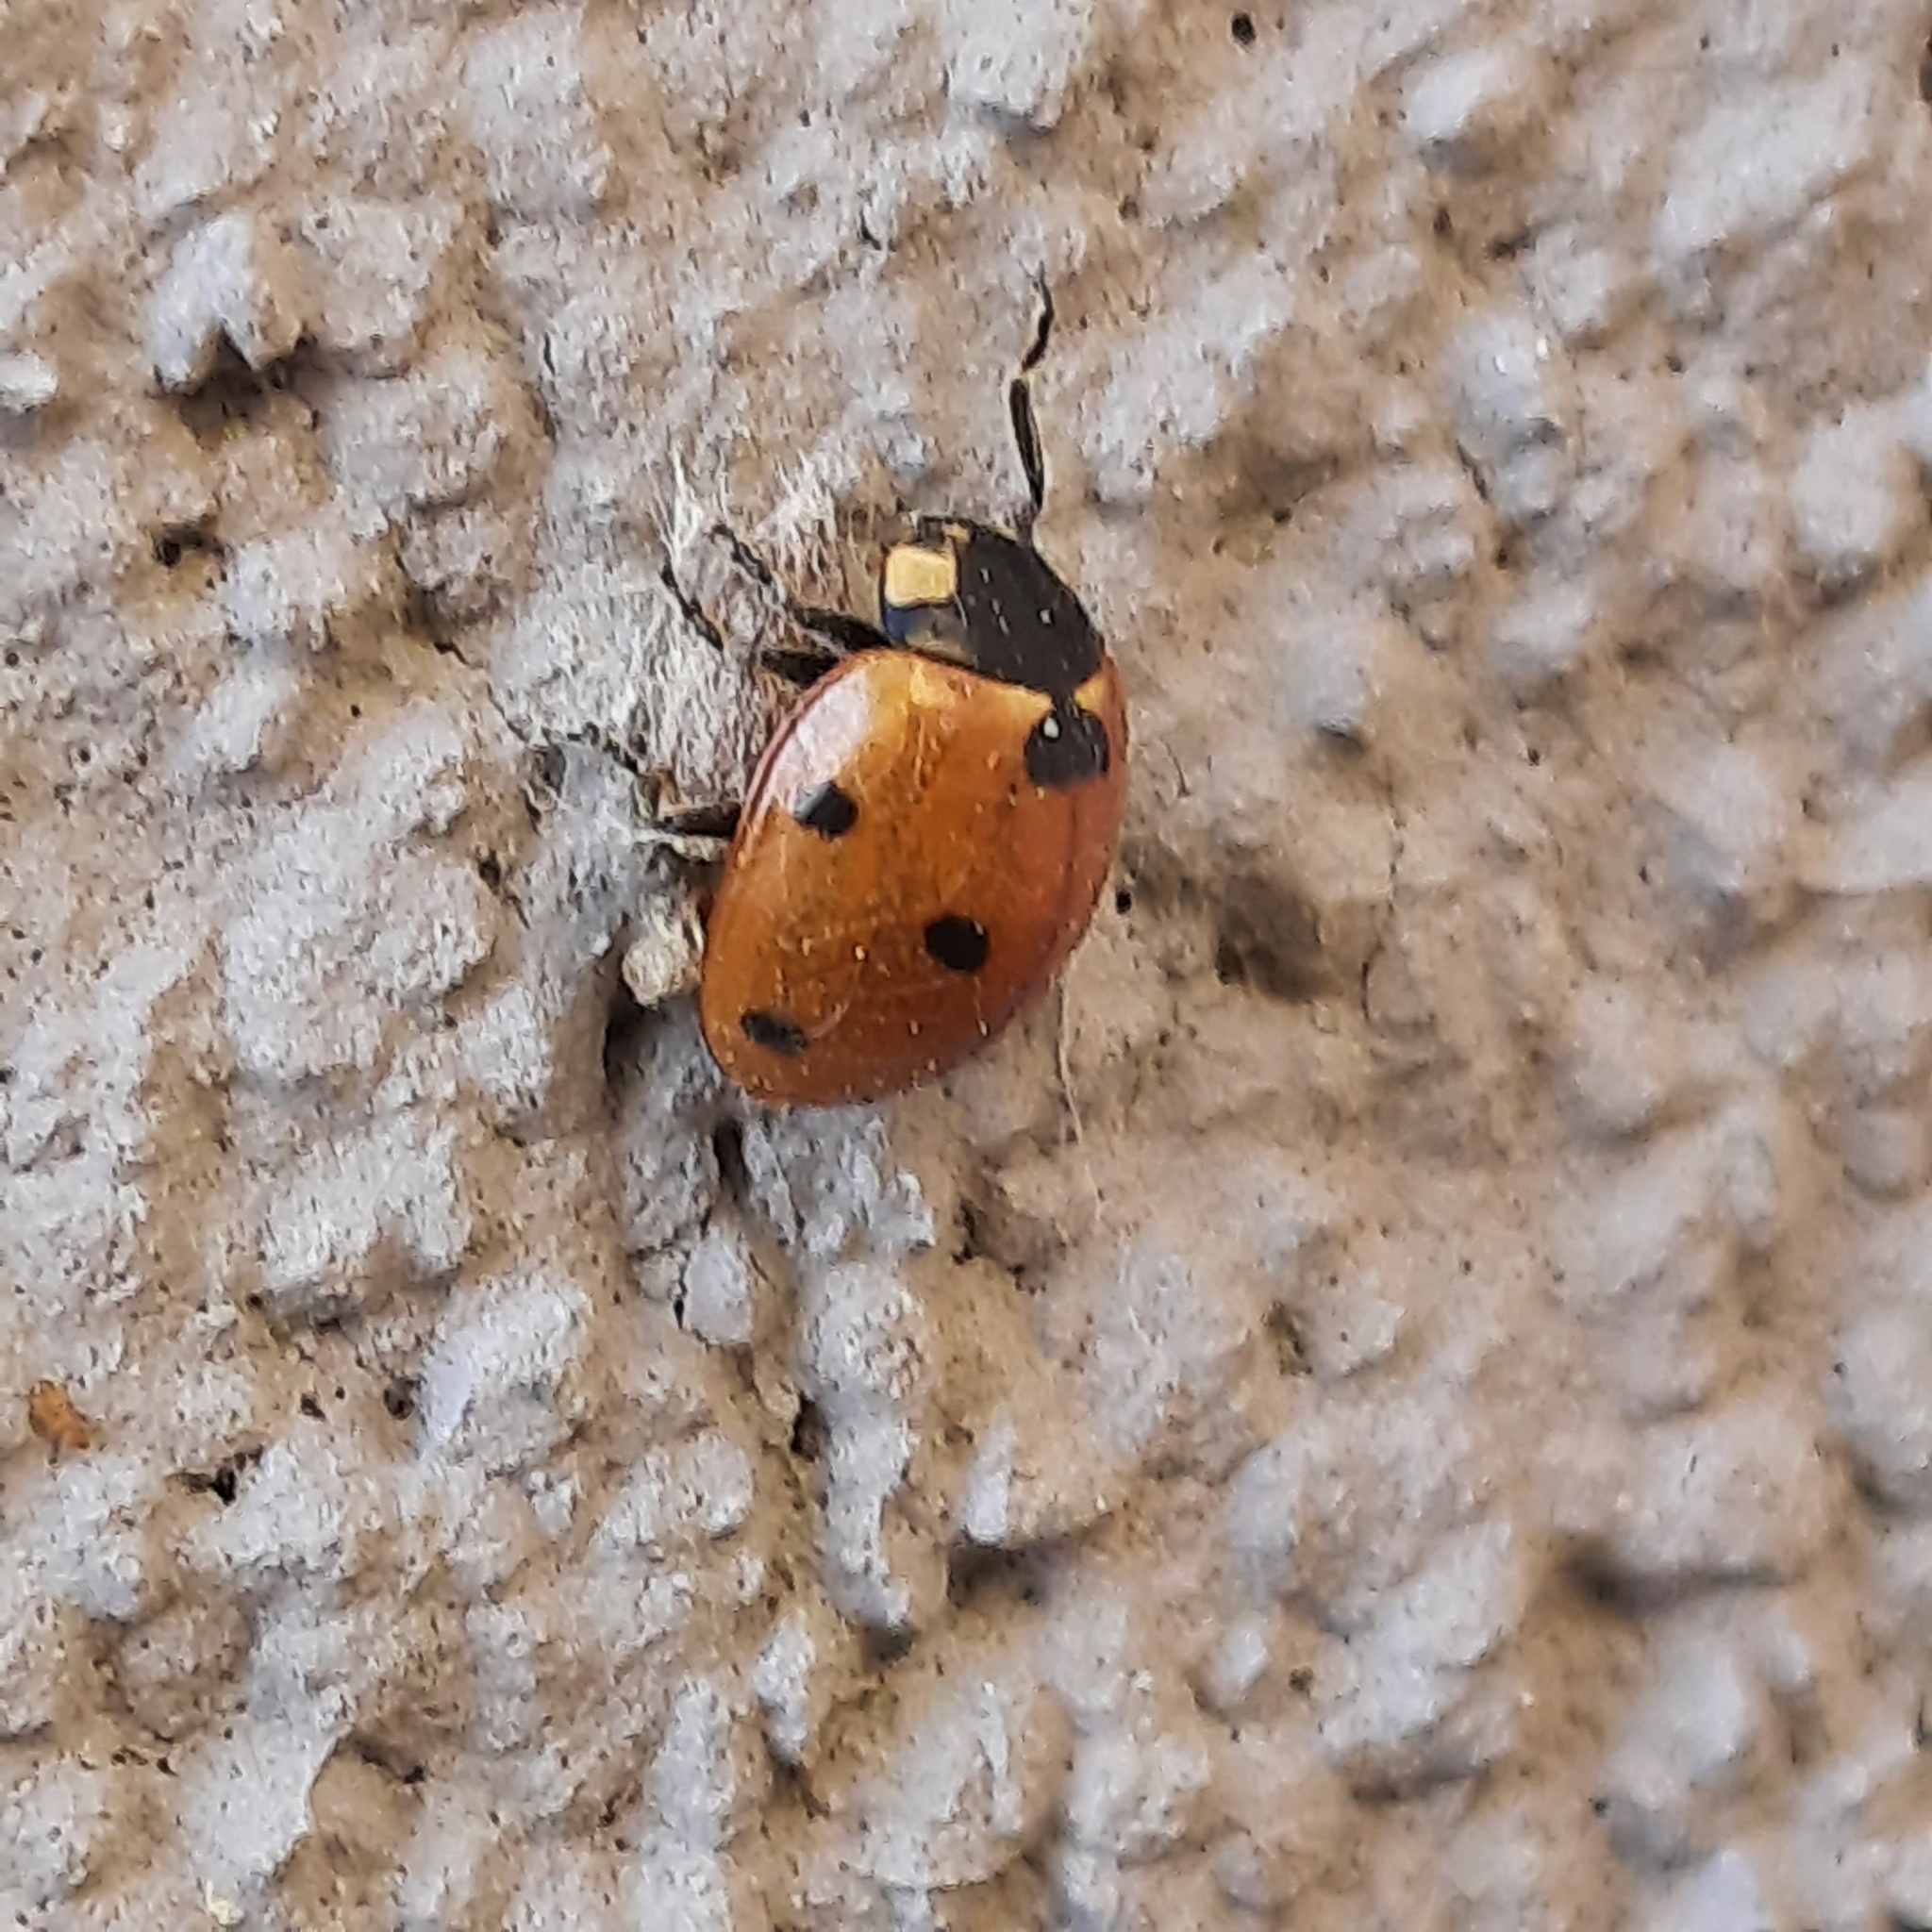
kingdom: Animalia
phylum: Arthropoda
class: Insecta
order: Coleoptera
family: Coccinellidae
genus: Coccinella
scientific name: Coccinella septempunctata
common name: Sevenspotted lady beetle
